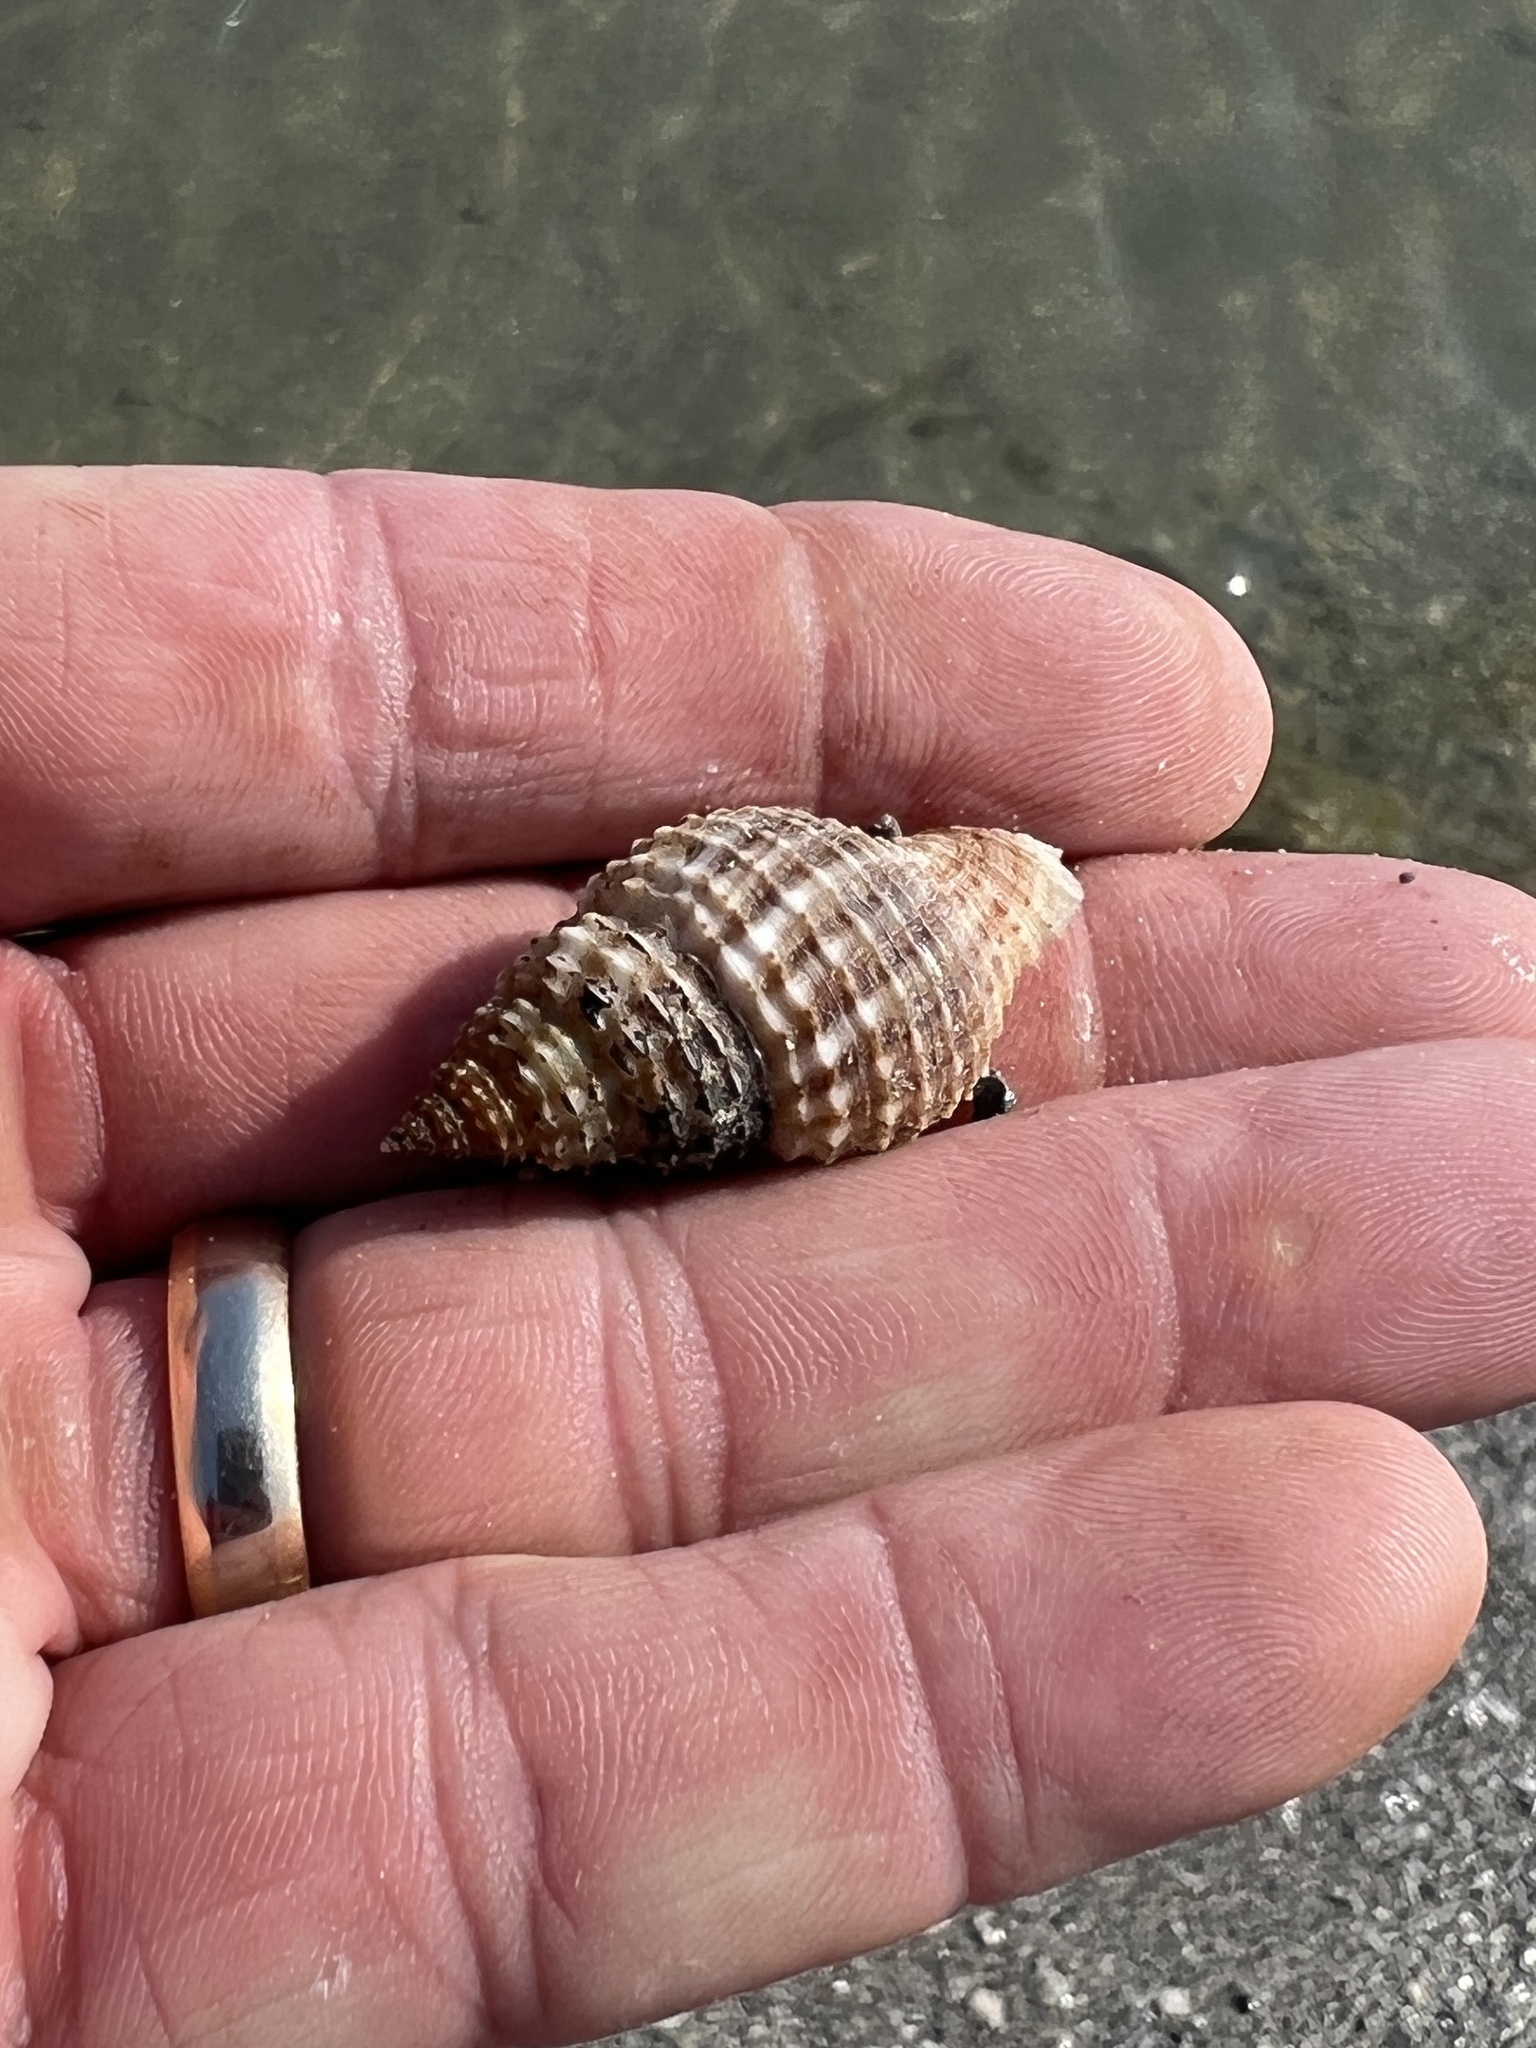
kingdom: Animalia
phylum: Mollusca
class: Gastropoda
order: Neogastropoda
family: Pisaniidae
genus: Solenosteira
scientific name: Solenosteira cancellaria
